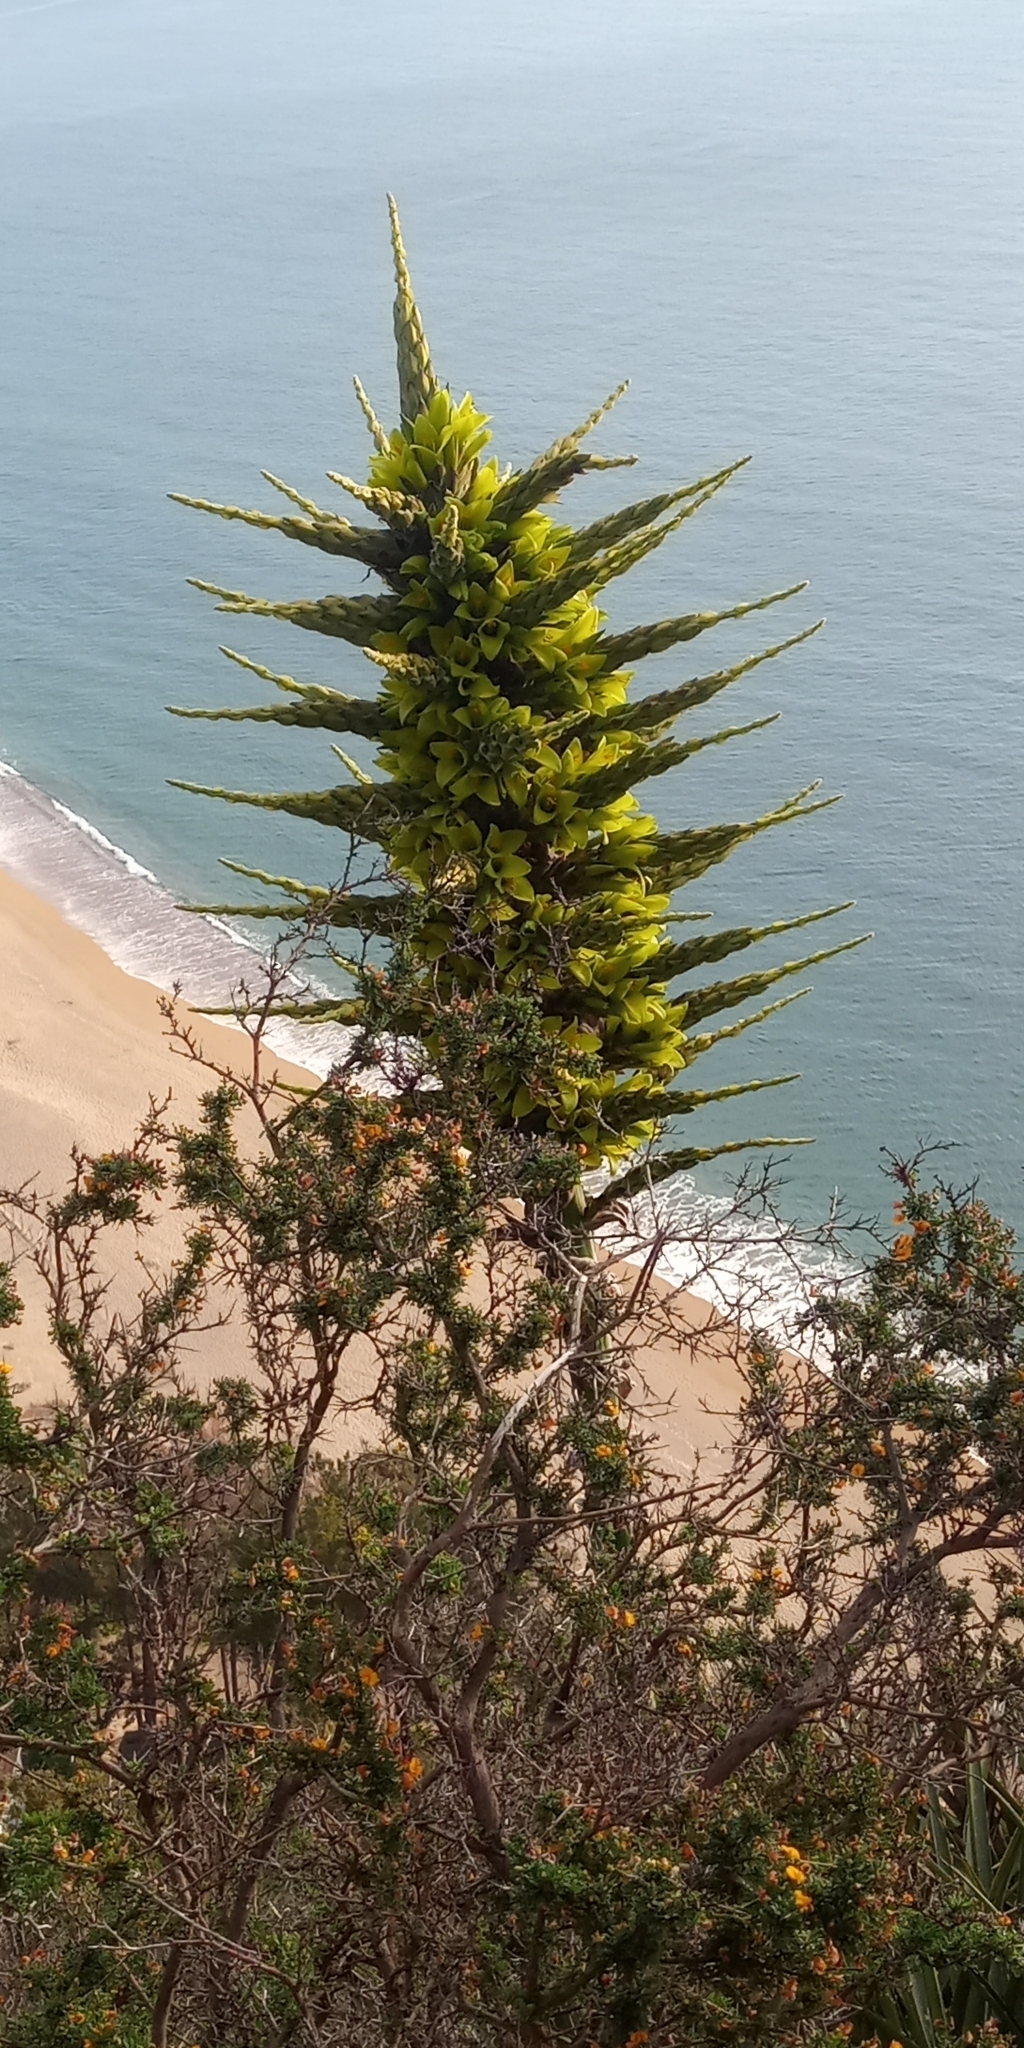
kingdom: Plantae
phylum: Tracheophyta
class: Liliopsida
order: Poales
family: Bromeliaceae
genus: Puya
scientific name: Puya chilensis
